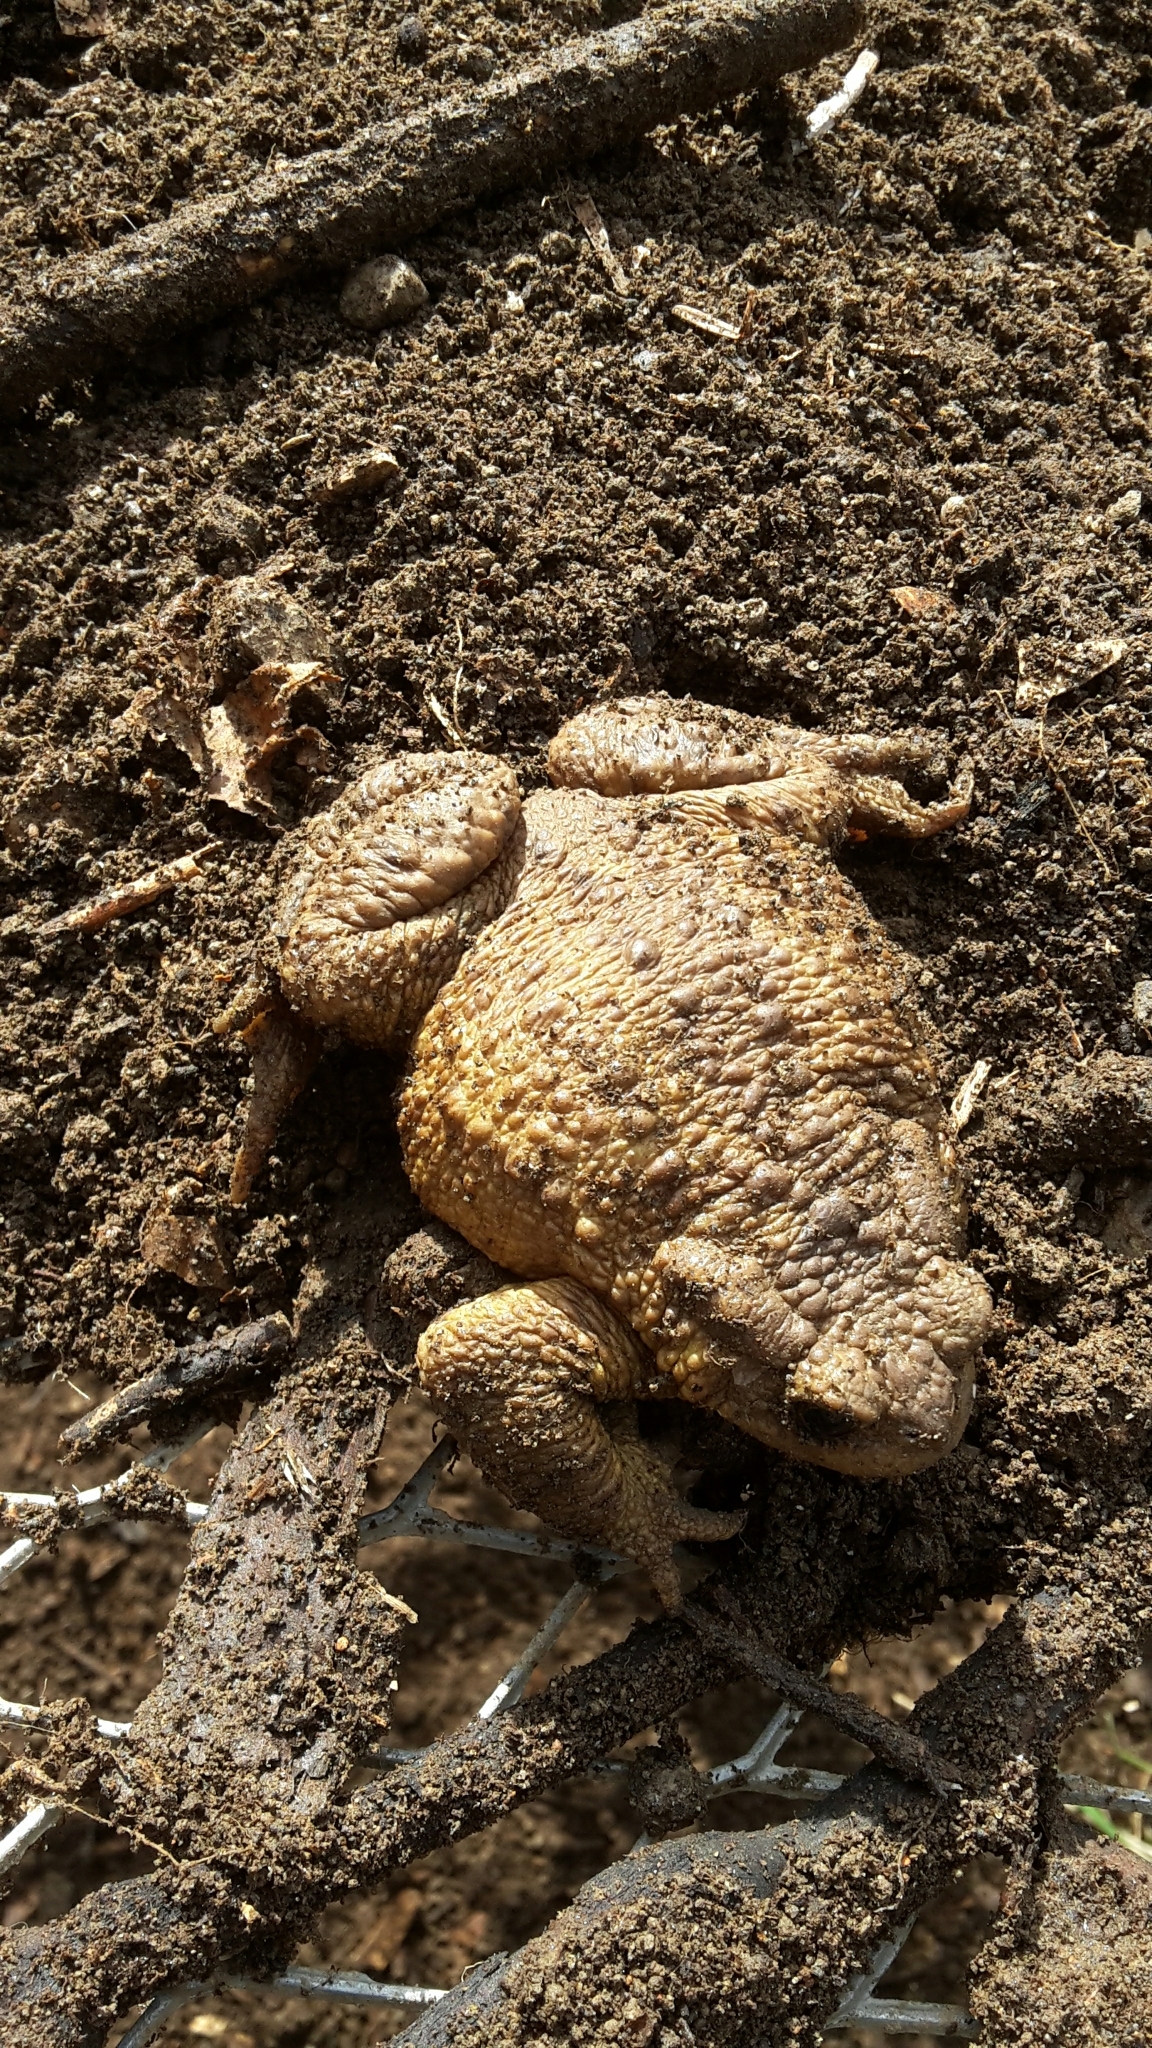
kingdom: Animalia
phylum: Chordata
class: Amphibia
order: Anura
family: Bufonidae
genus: Bufo
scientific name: Bufo bufo
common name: Common toad
